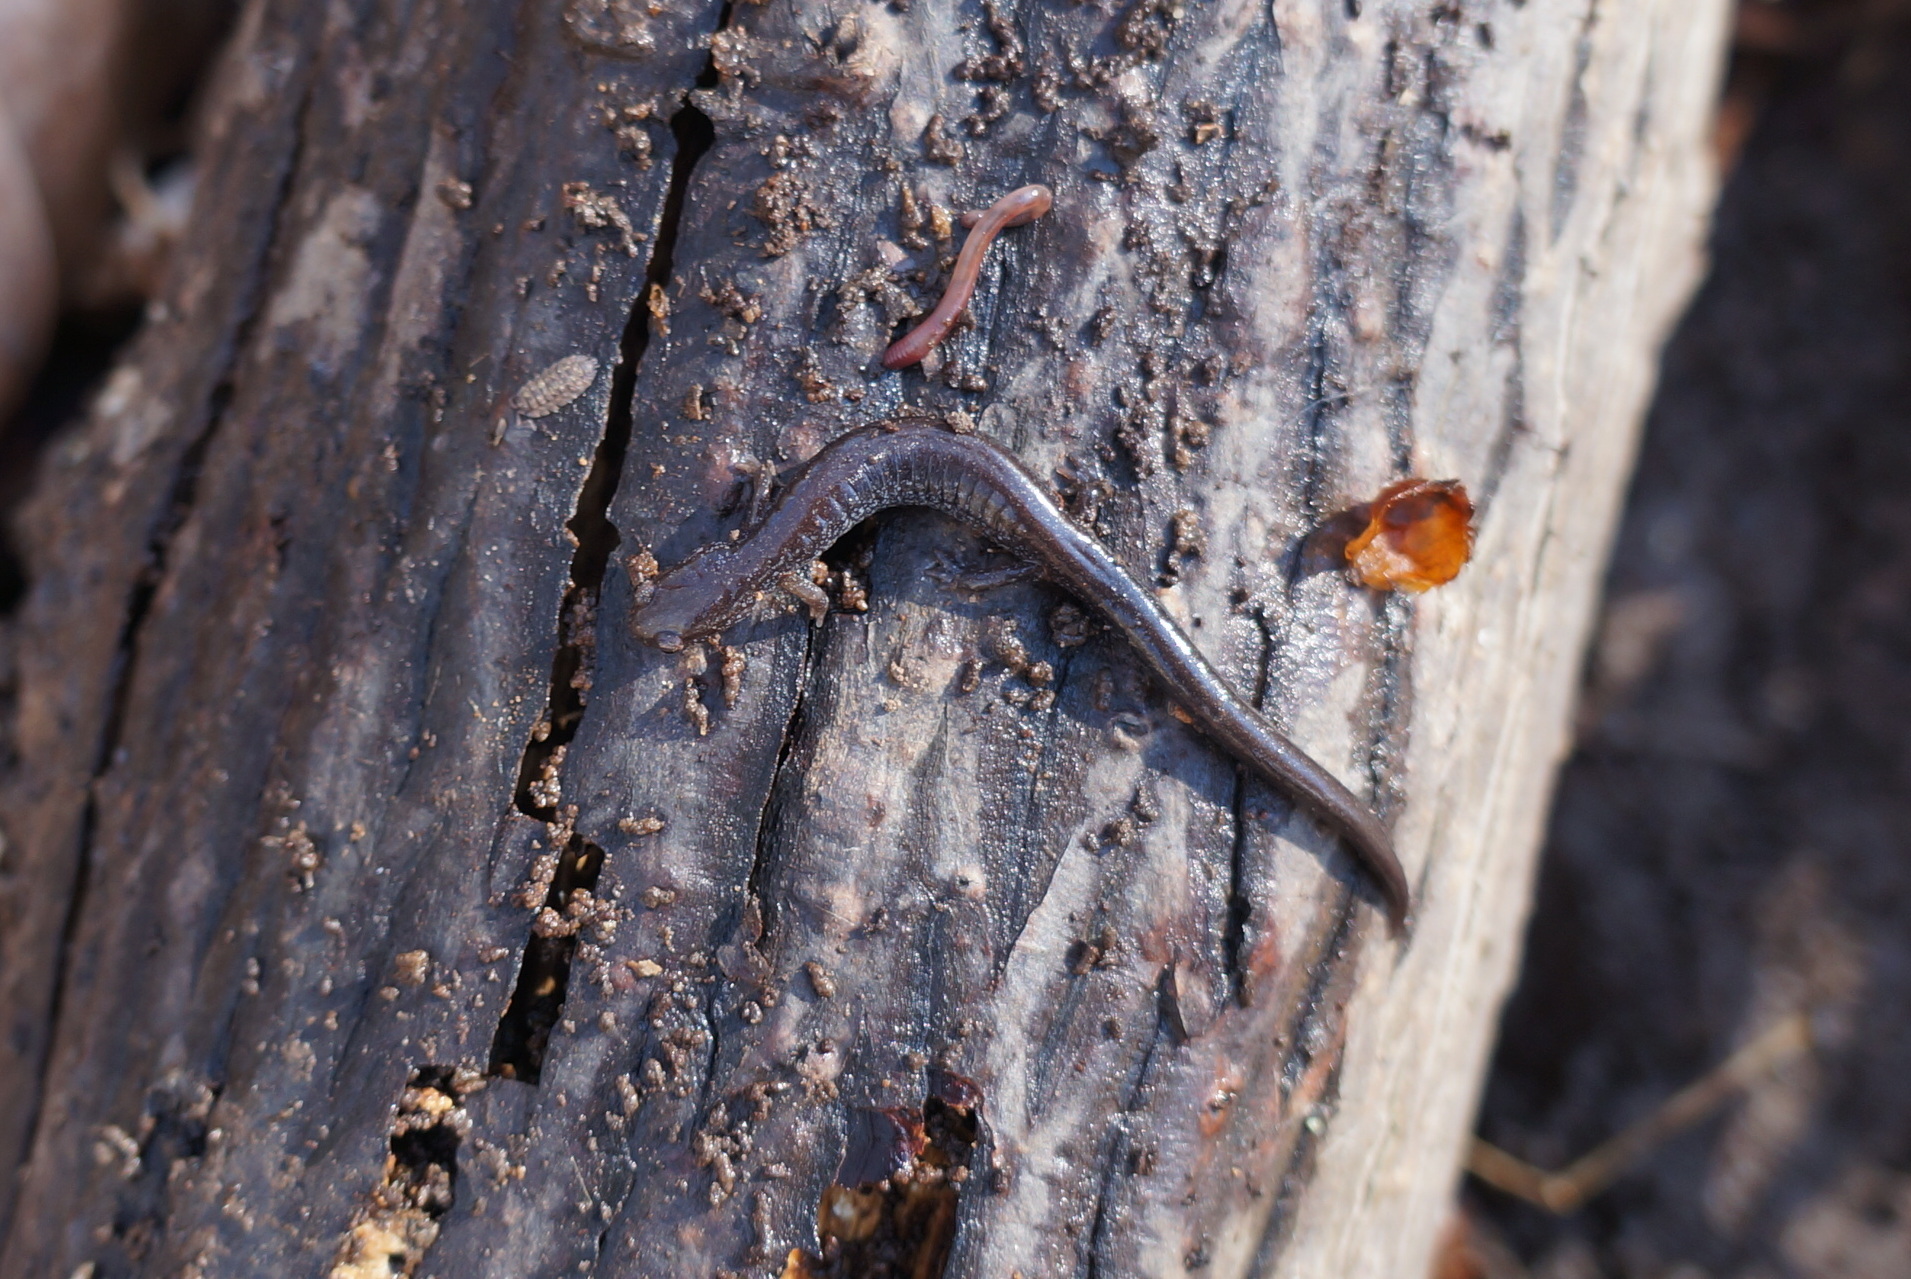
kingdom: Animalia
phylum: Chordata
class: Amphibia
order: Caudata
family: Plethodontidae
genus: Plethodon
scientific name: Plethodon cinereus
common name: Redback salamander
